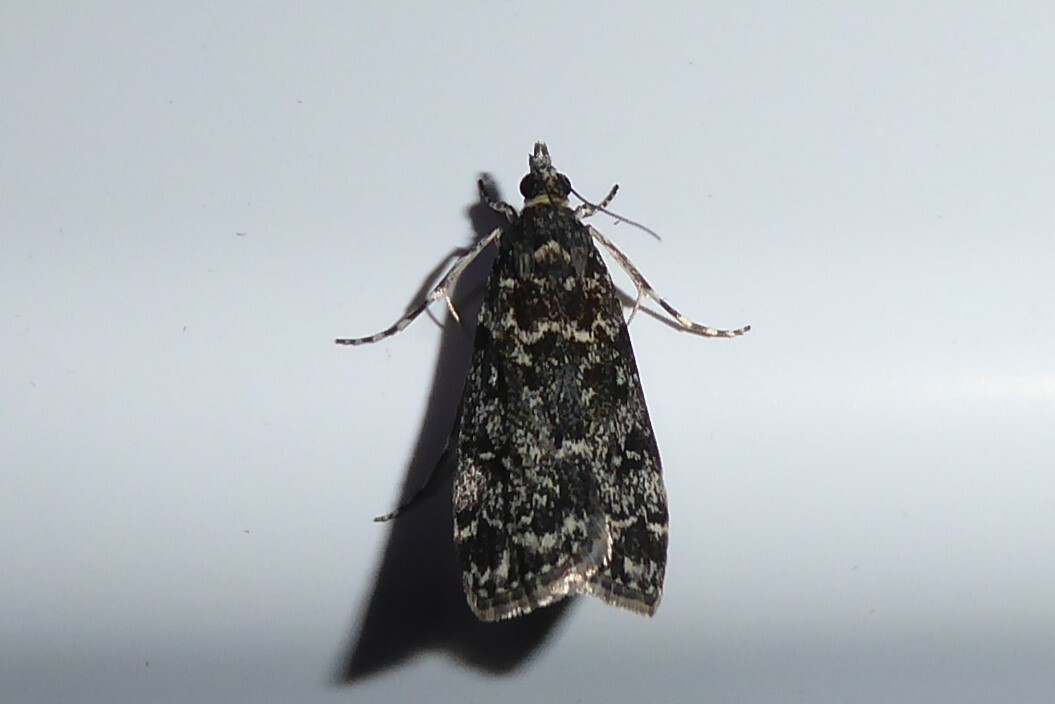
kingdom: Animalia
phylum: Arthropoda
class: Insecta
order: Lepidoptera
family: Crambidae
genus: Eudonia
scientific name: Eudonia philerga
